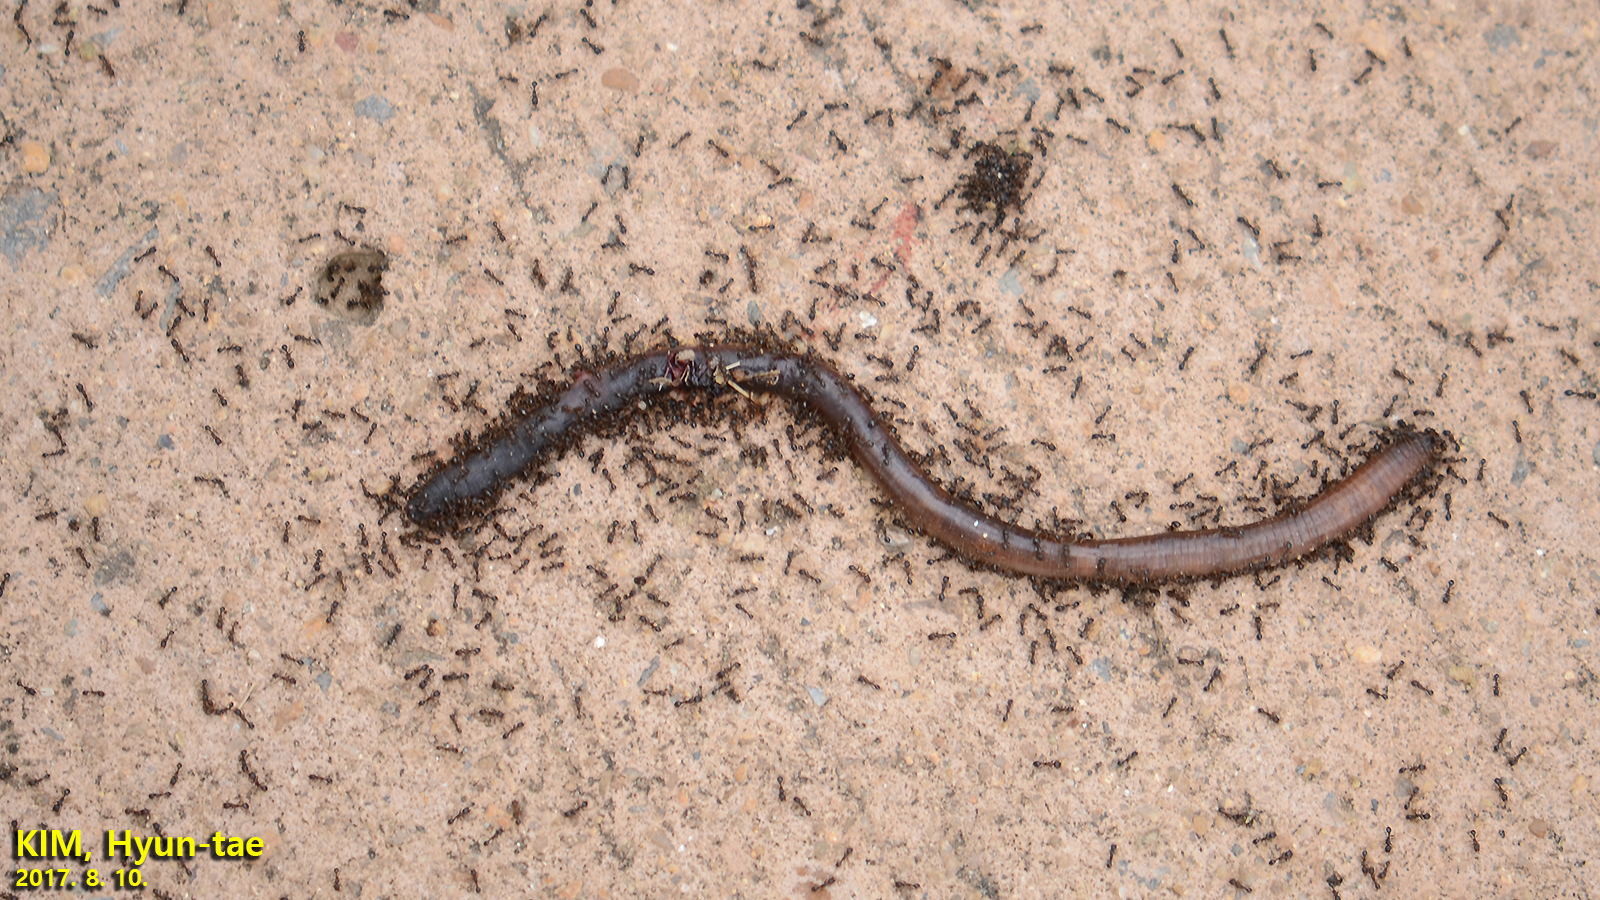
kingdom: Animalia
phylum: Arthropoda
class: Insecta
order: Hymenoptera
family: Formicidae
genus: Tetramorium
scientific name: Tetramorium tsushimae
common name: Ant
